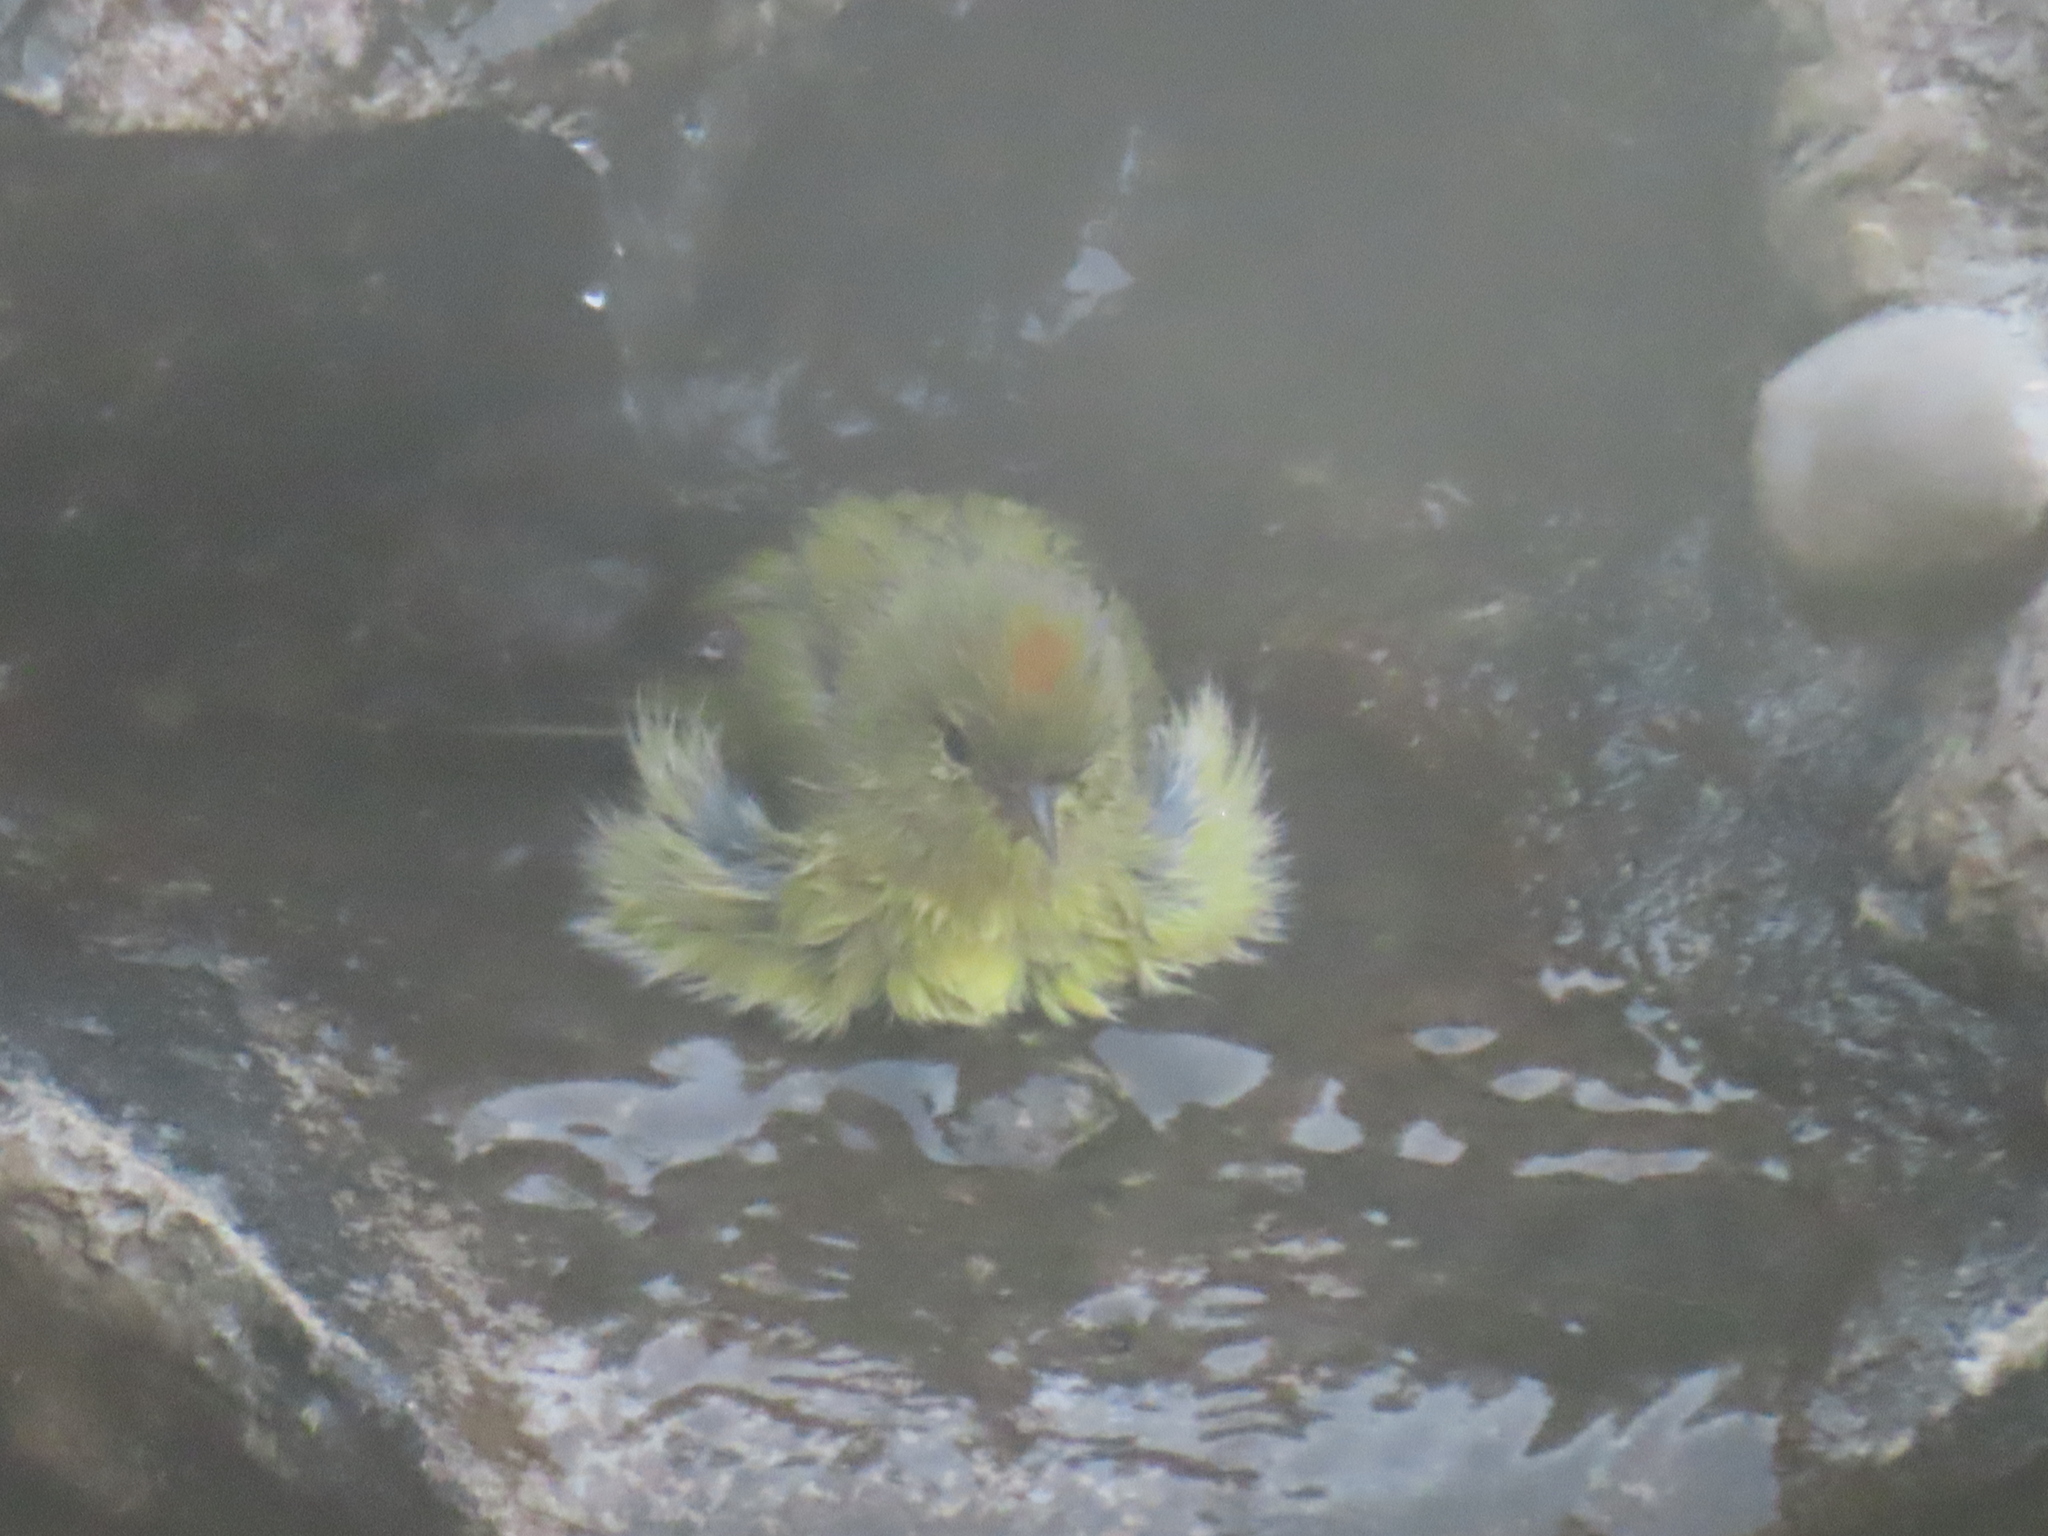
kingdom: Animalia
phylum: Chordata
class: Aves
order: Passeriformes
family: Parulidae
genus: Leiothlypis
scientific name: Leiothlypis ruficapilla
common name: Nashville warbler
